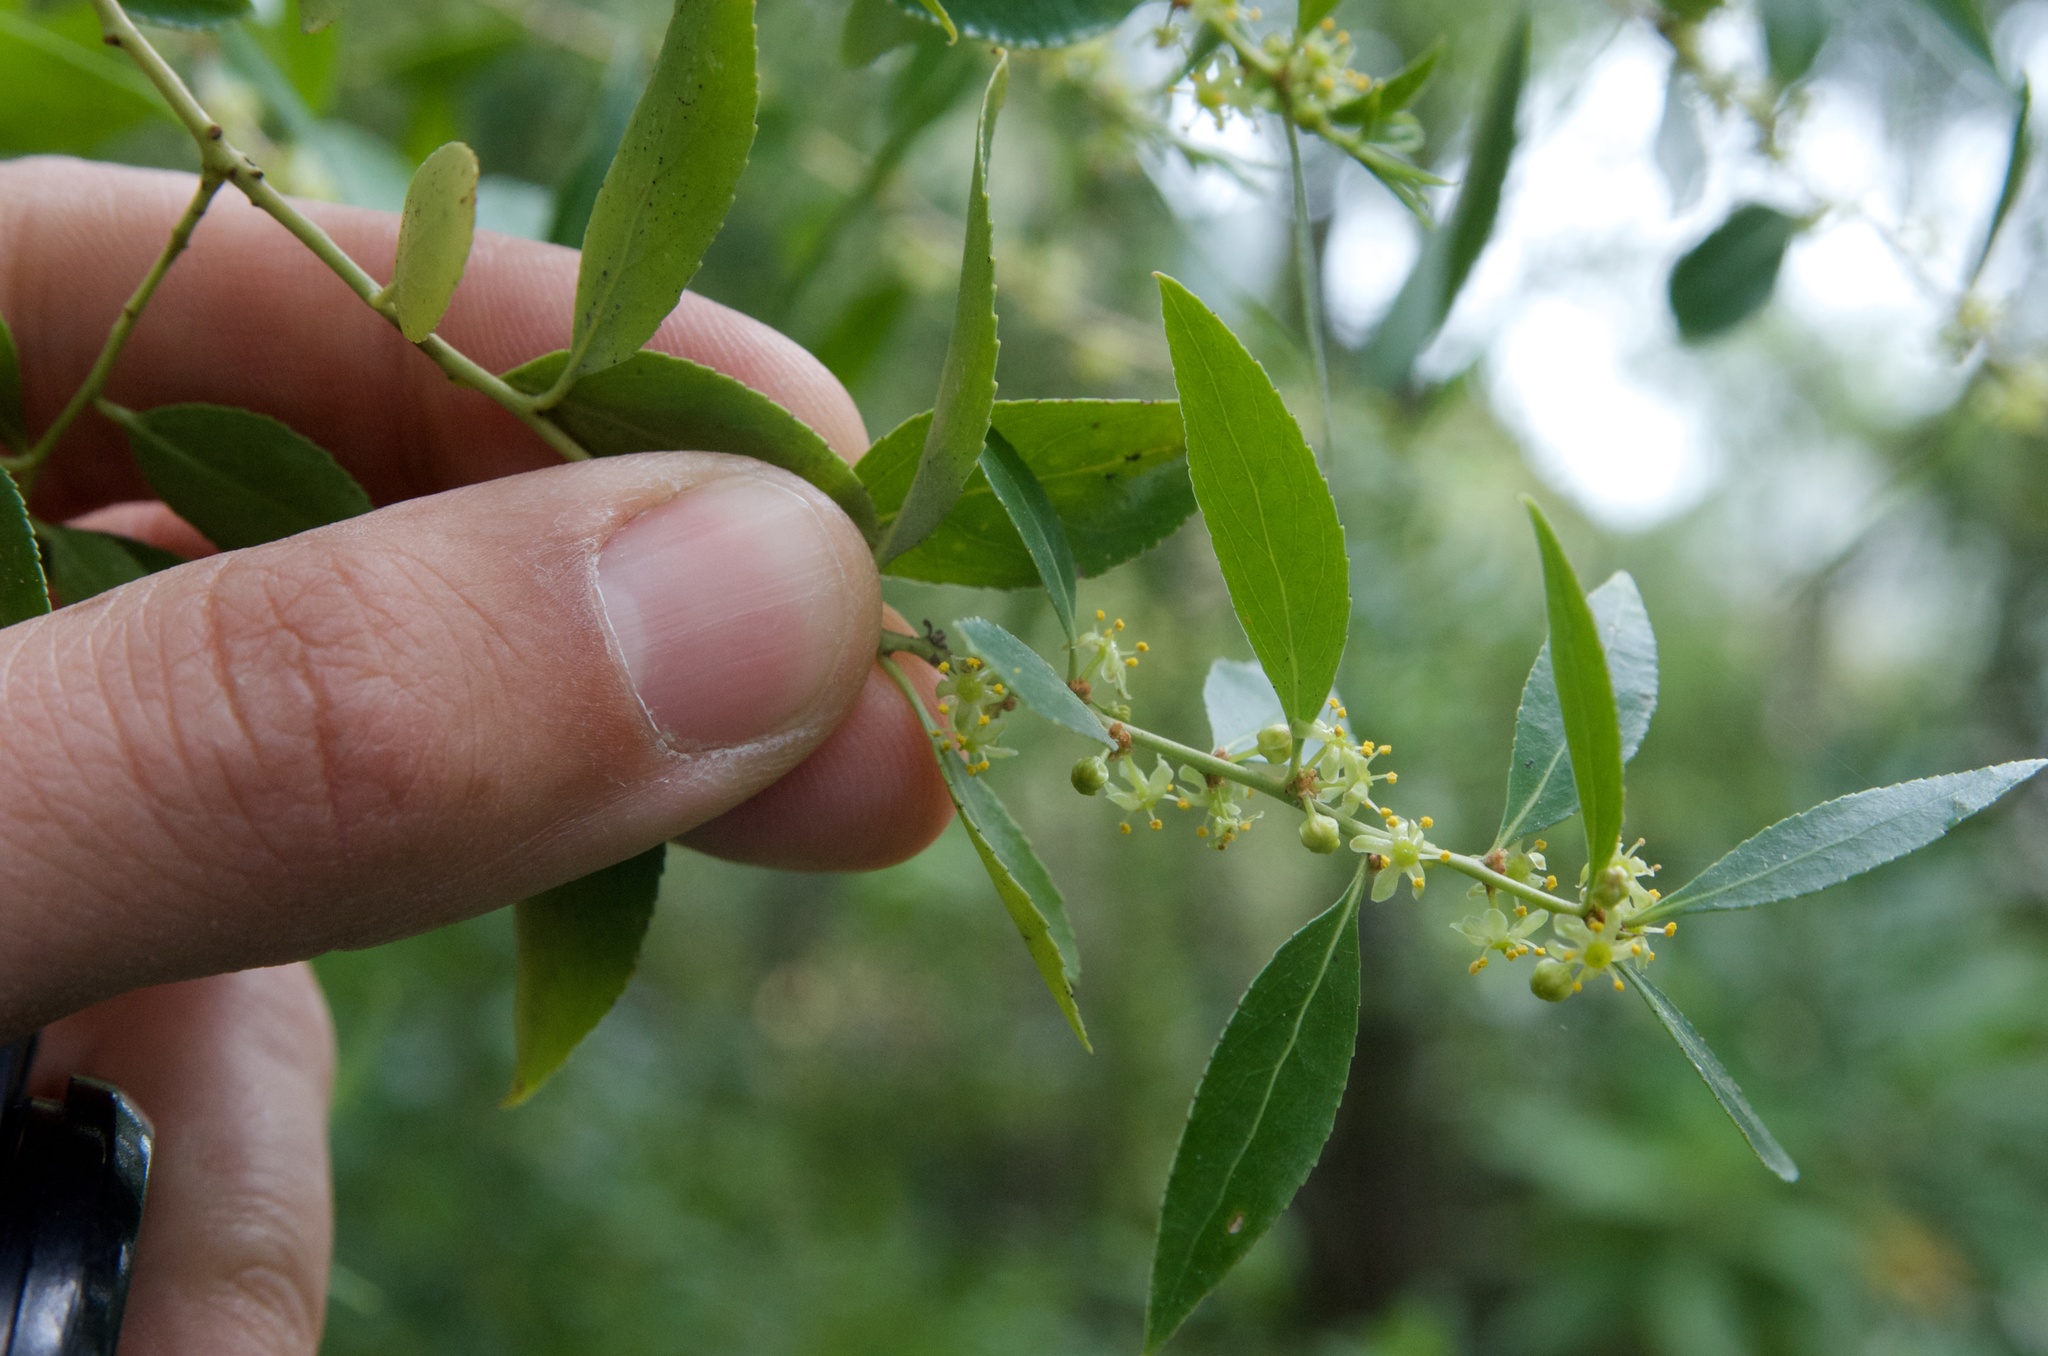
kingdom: Plantae
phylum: Tracheophyta
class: Magnoliopsida
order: Celastrales
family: Celastraceae
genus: Maytenus
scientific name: Maytenus boaria
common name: Mayten
